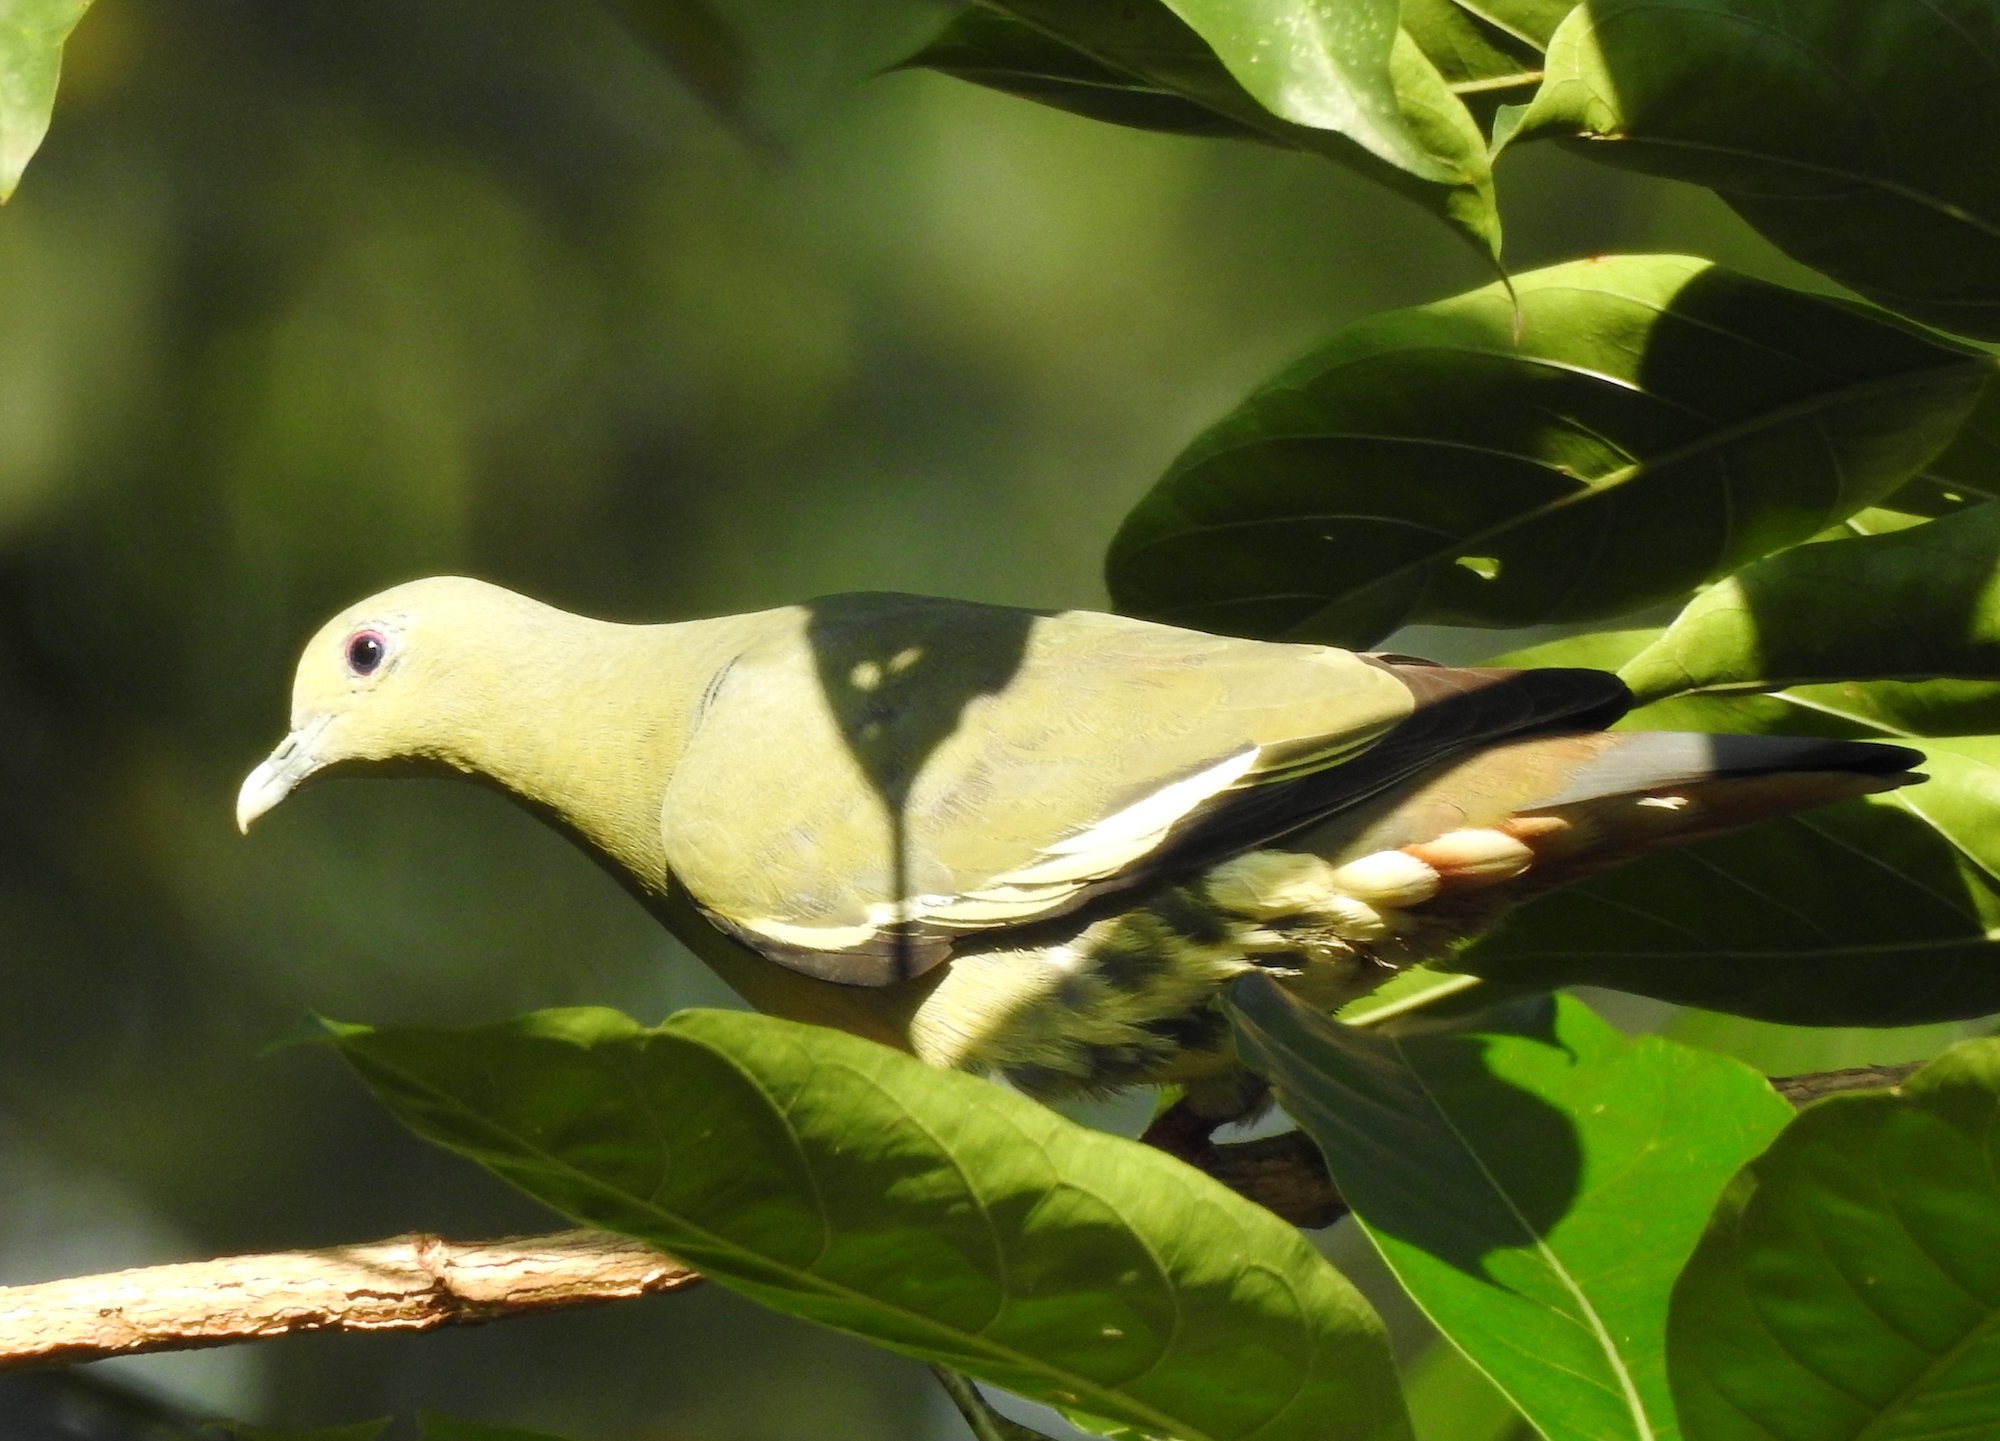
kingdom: Animalia
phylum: Chordata
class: Aves
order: Columbiformes
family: Columbidae
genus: Treron
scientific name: Treron vernans
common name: Pink-necked green pigeon
